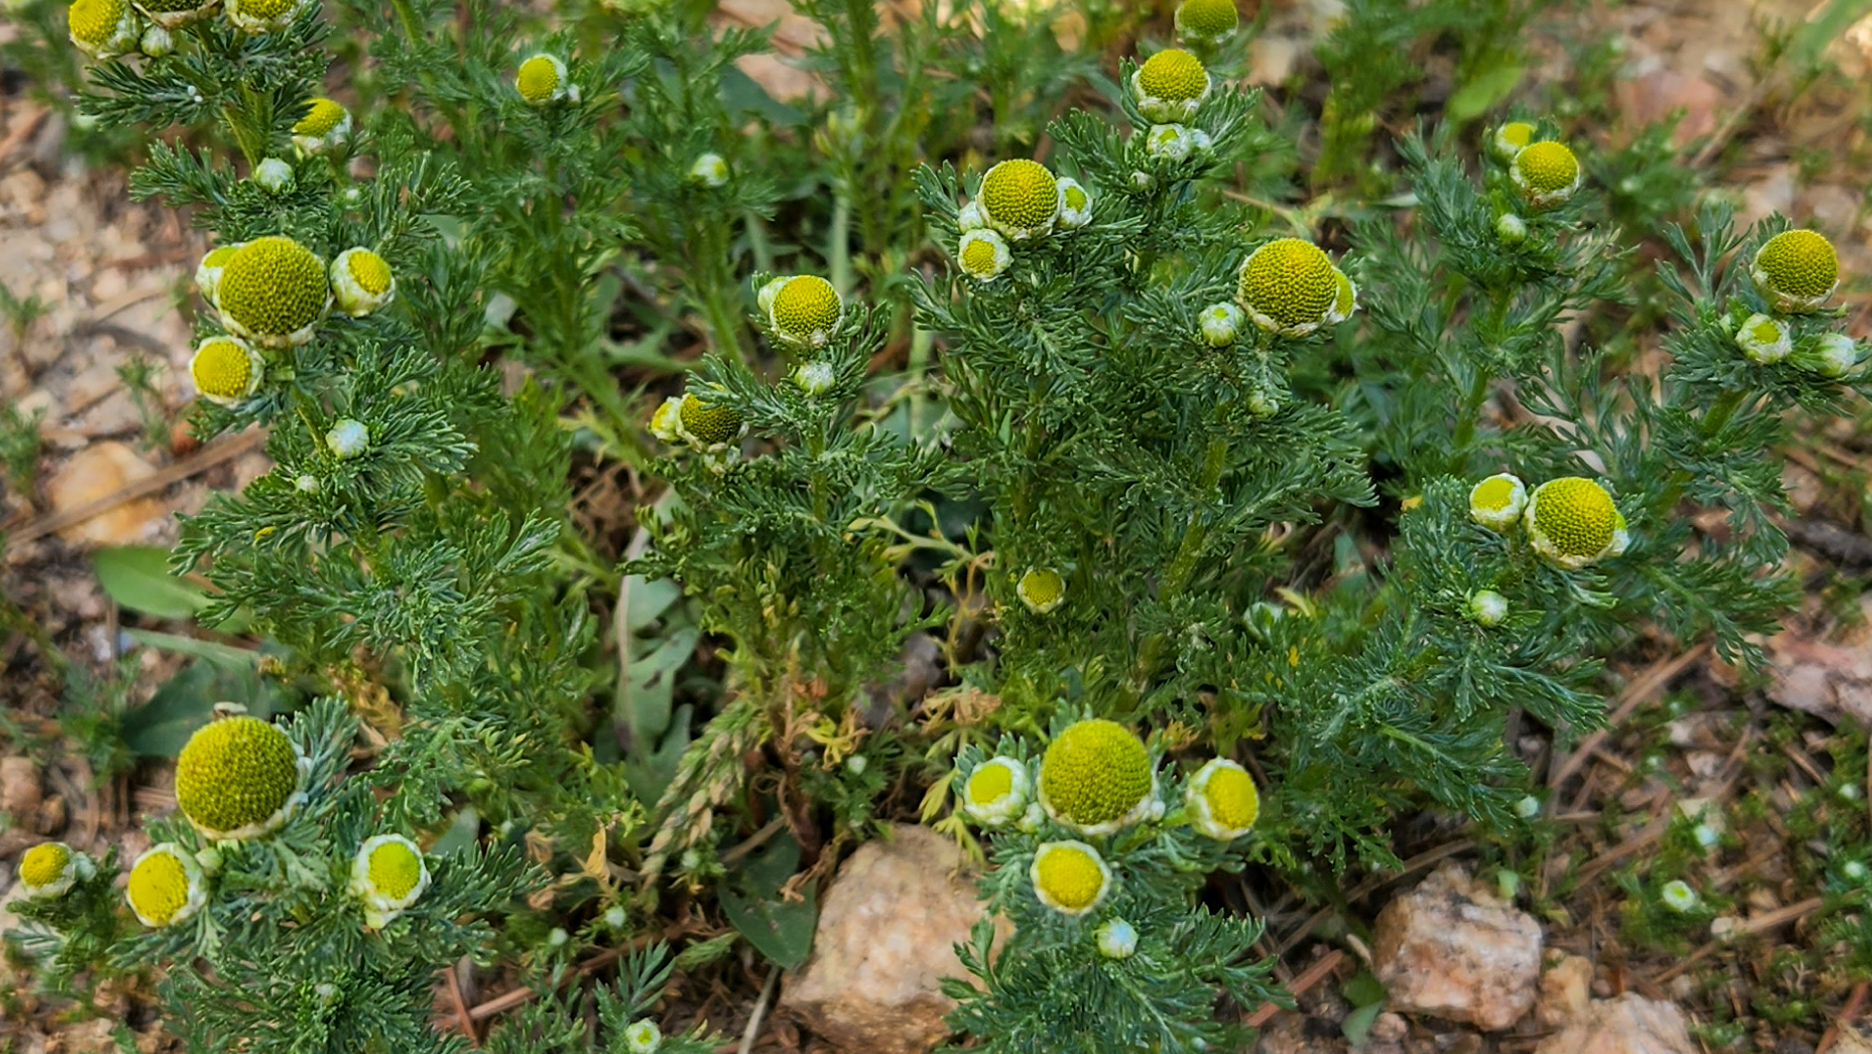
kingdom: Plantae
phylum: Tracheophyta
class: Magnoliopsida
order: Asterales
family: Asteraceae
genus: Matricaria
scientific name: Matricaria discoidea
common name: Disc mayweed
